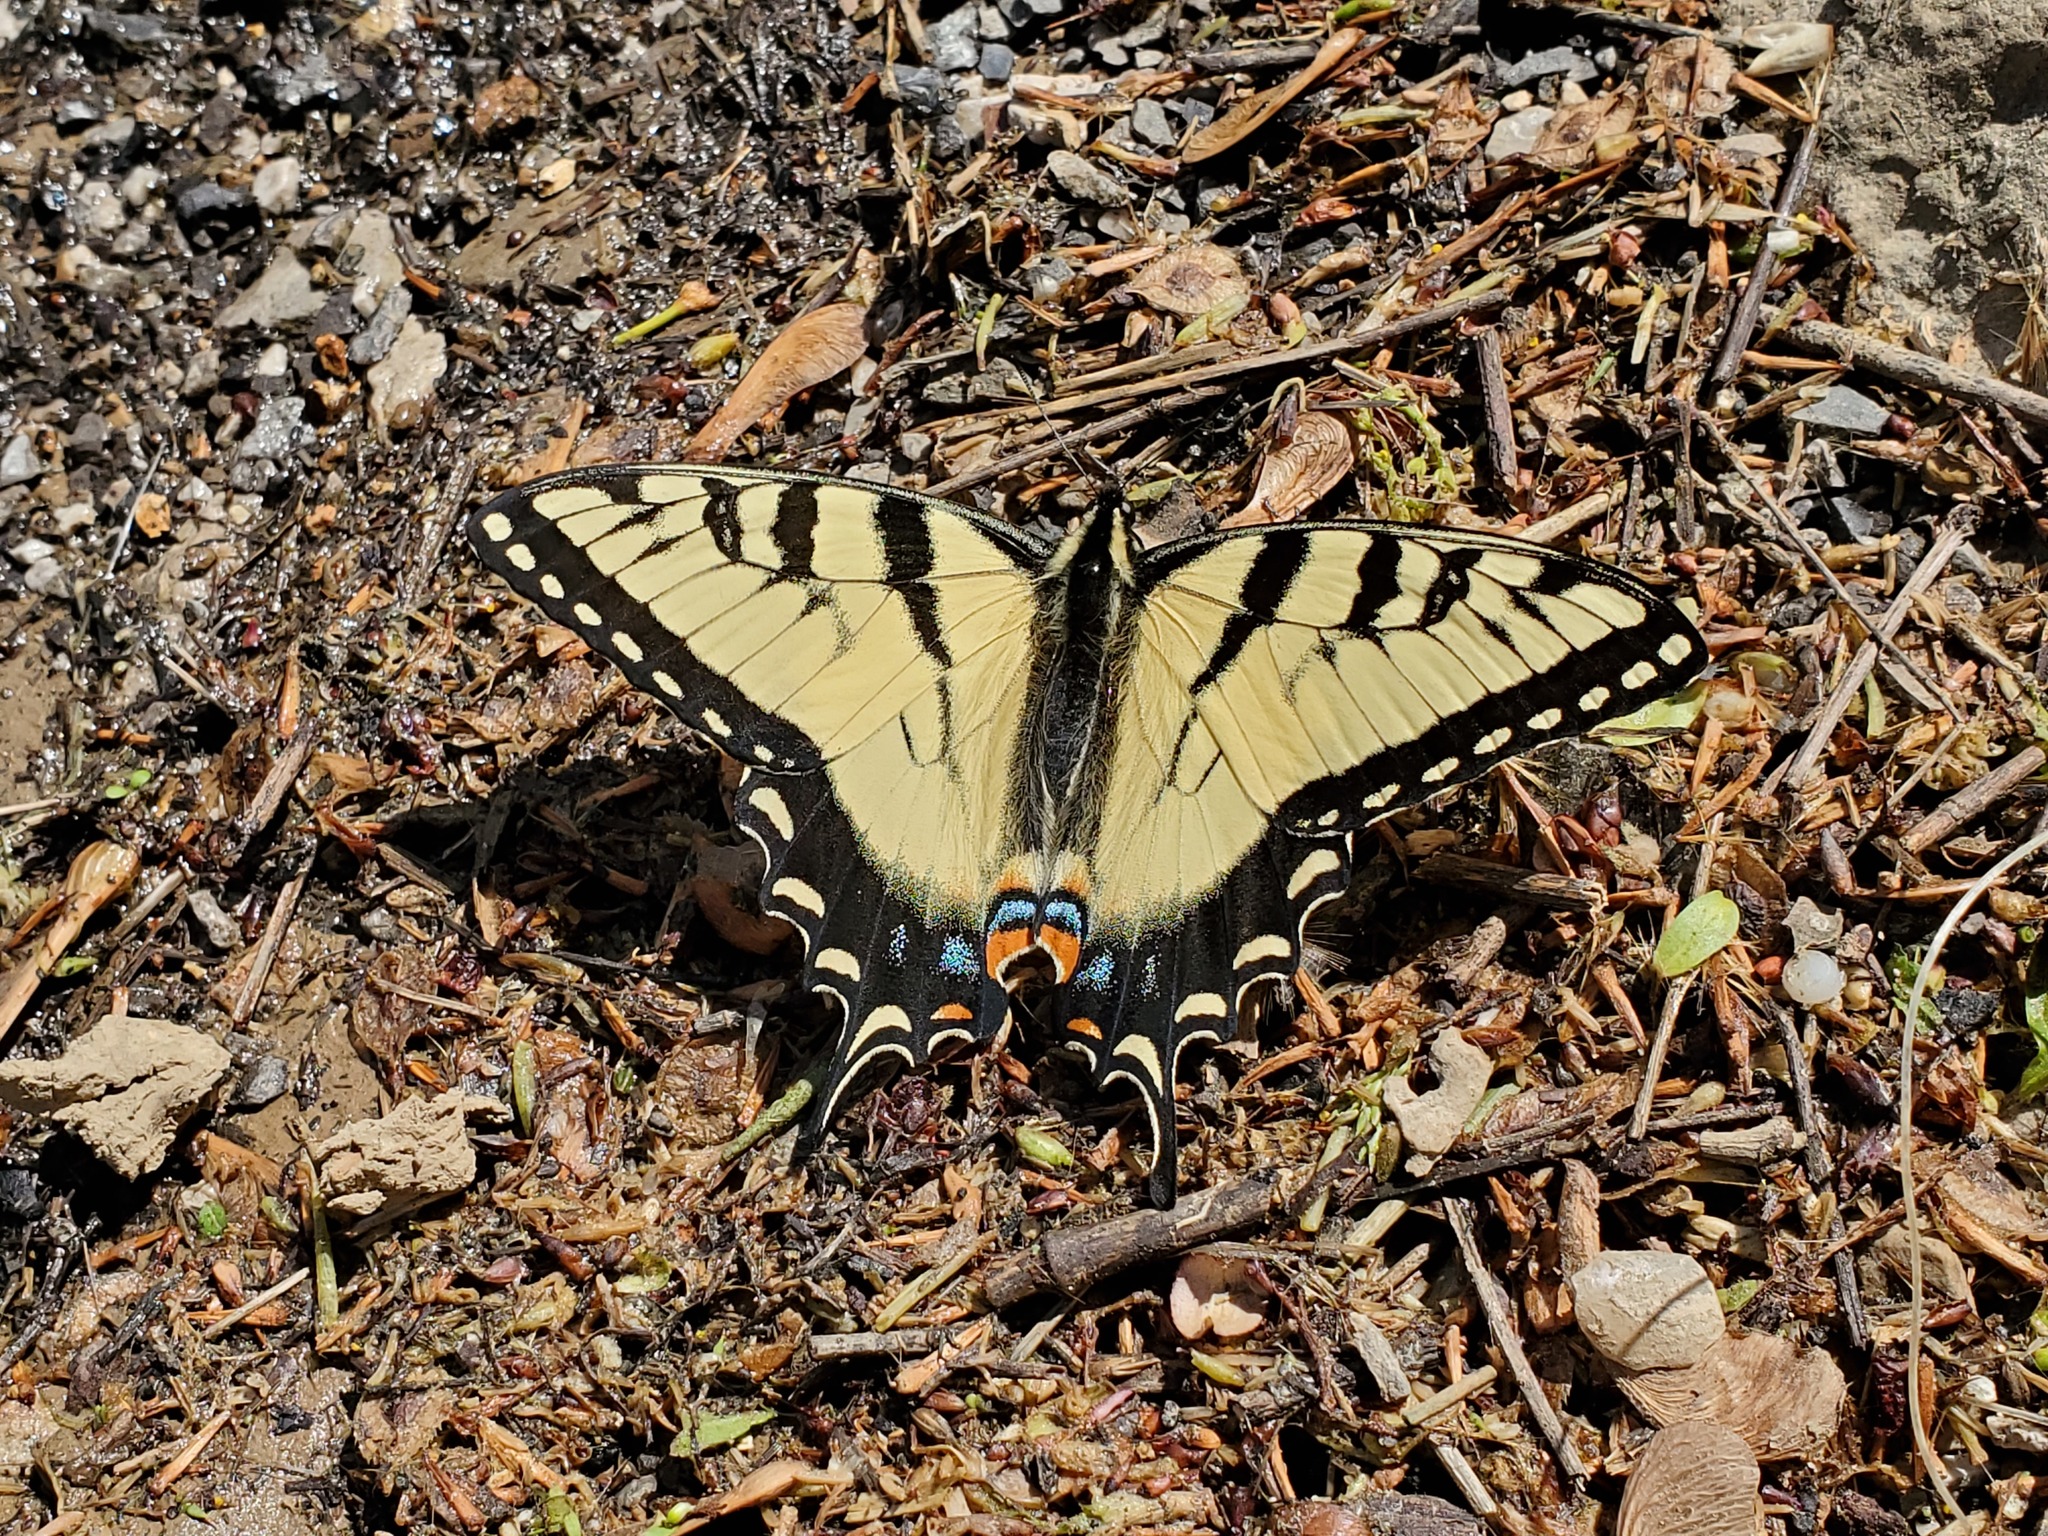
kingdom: Animalia
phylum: Arthropoda
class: Insecta
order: Lepidoptera
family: Papilionidae
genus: Papilio
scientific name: Papilio glaucus
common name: Tiger swallowtail
